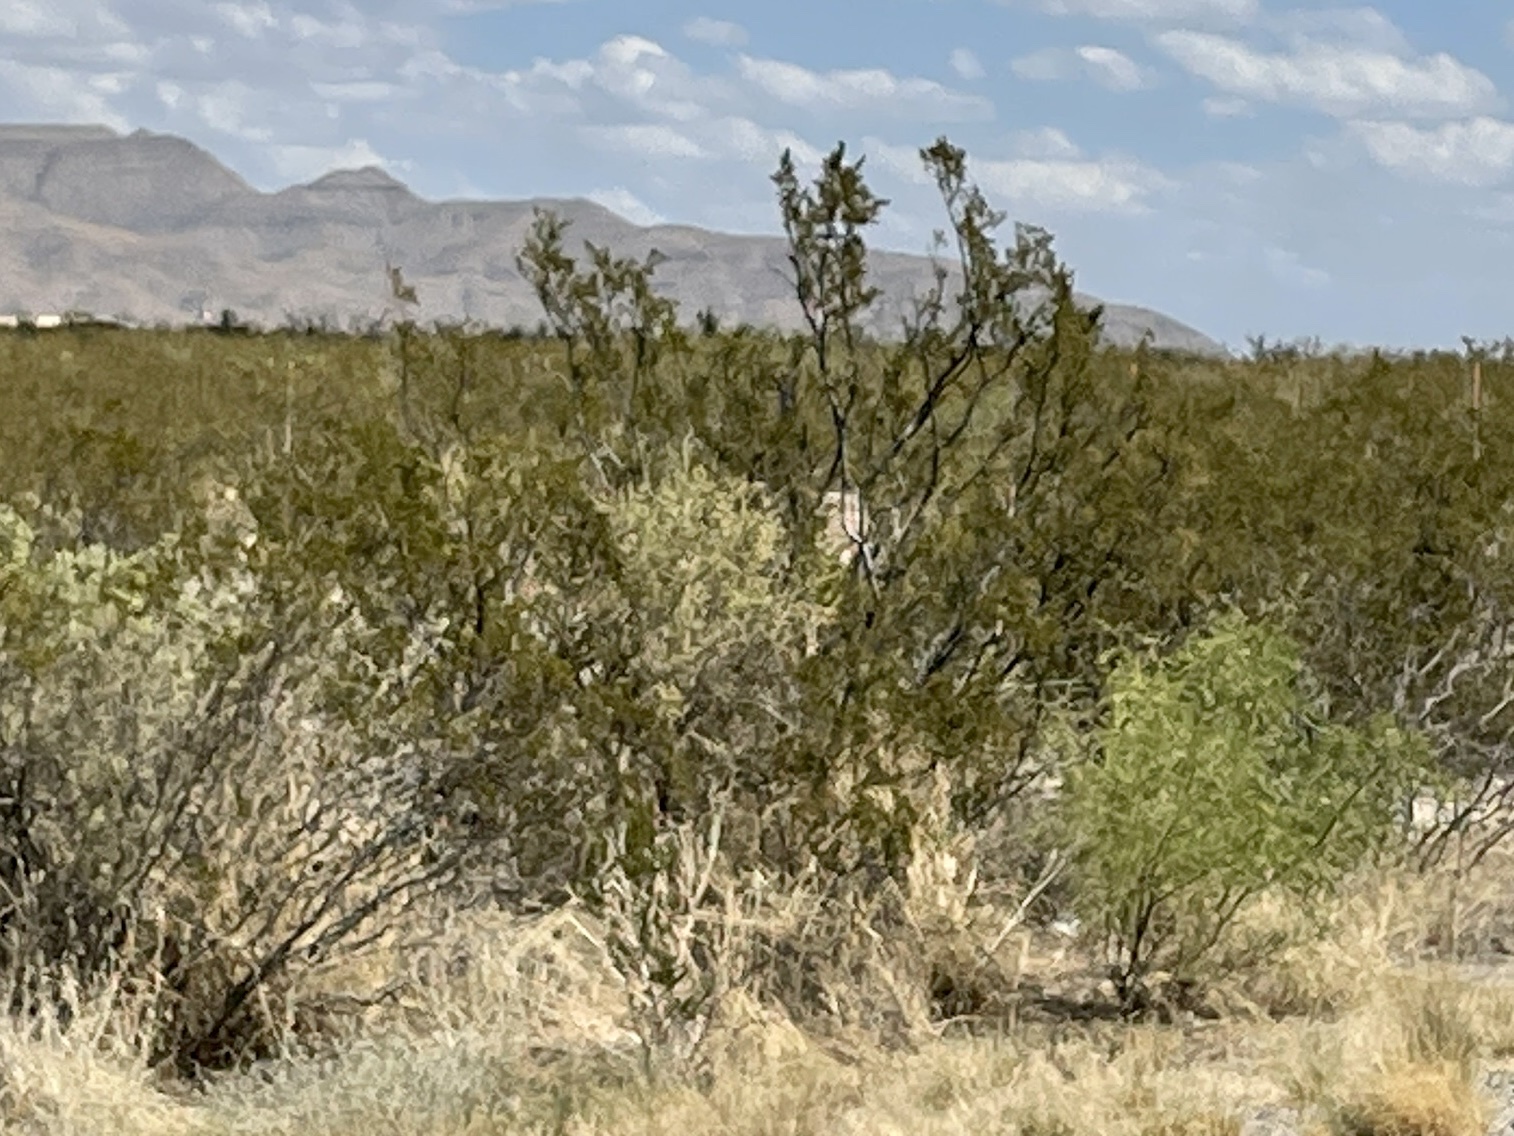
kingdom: Plantae
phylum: Tracheophyta
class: Magnoliopsida
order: Zygophyllales
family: Zygophyllaceae
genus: Larrea
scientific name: Larrea tridentata
